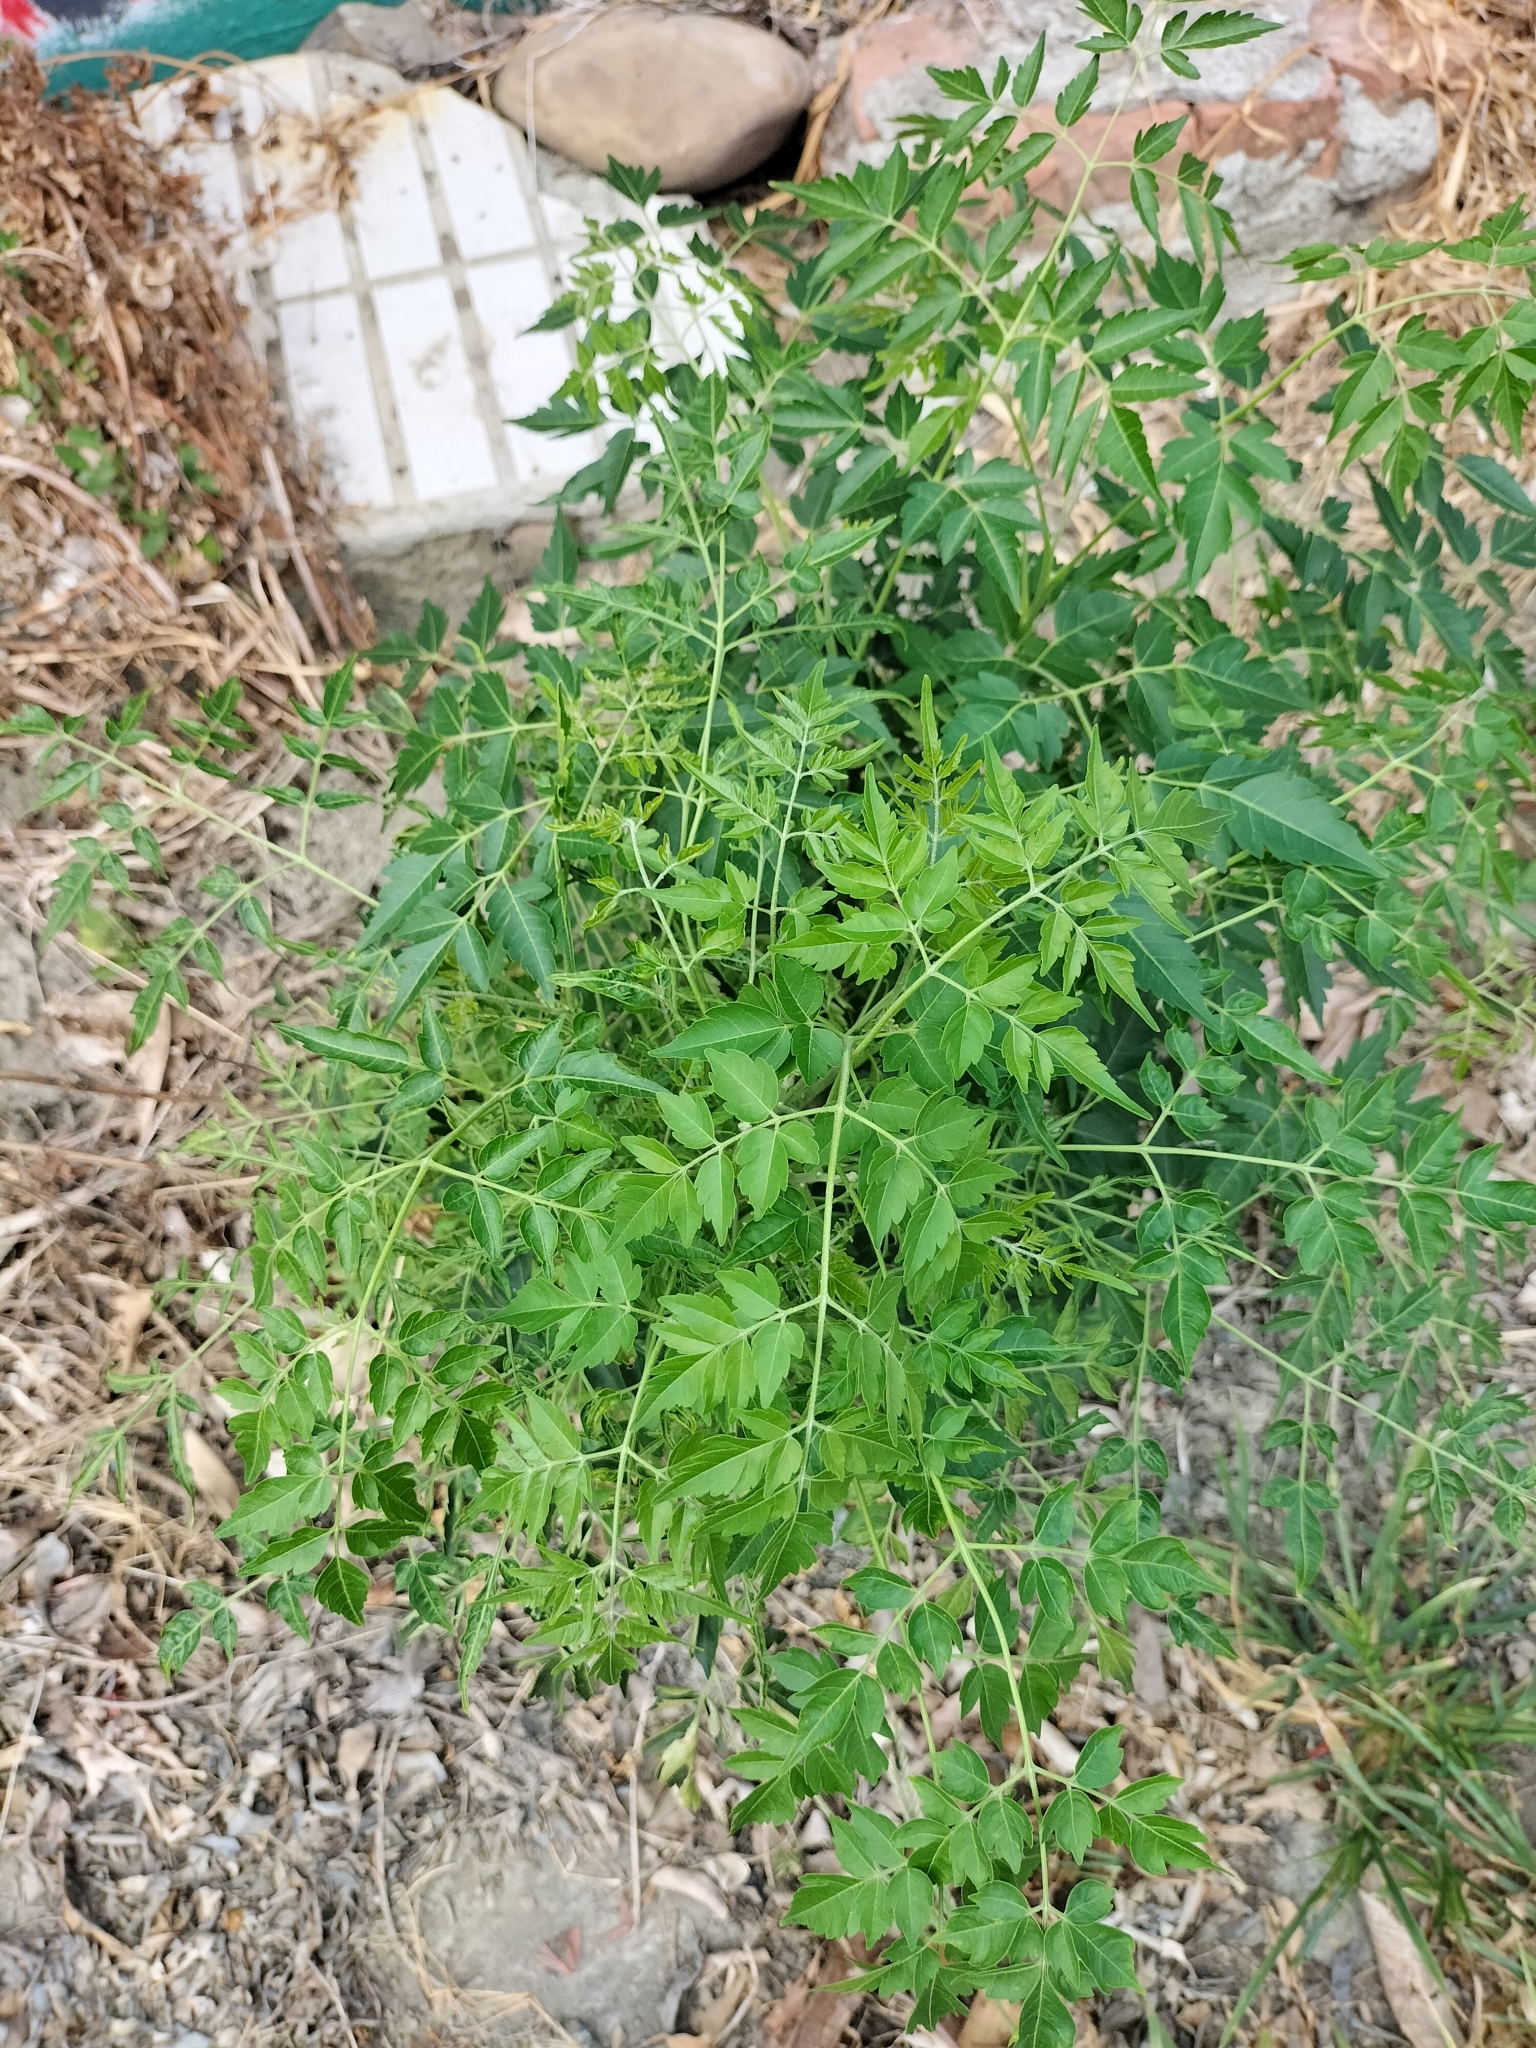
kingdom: Plantae
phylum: Tracheophyta
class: Magnoliopsida
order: Sapindales
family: Meliaceae
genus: Melia
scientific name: Melia azedarach
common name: Chinaberrytree
